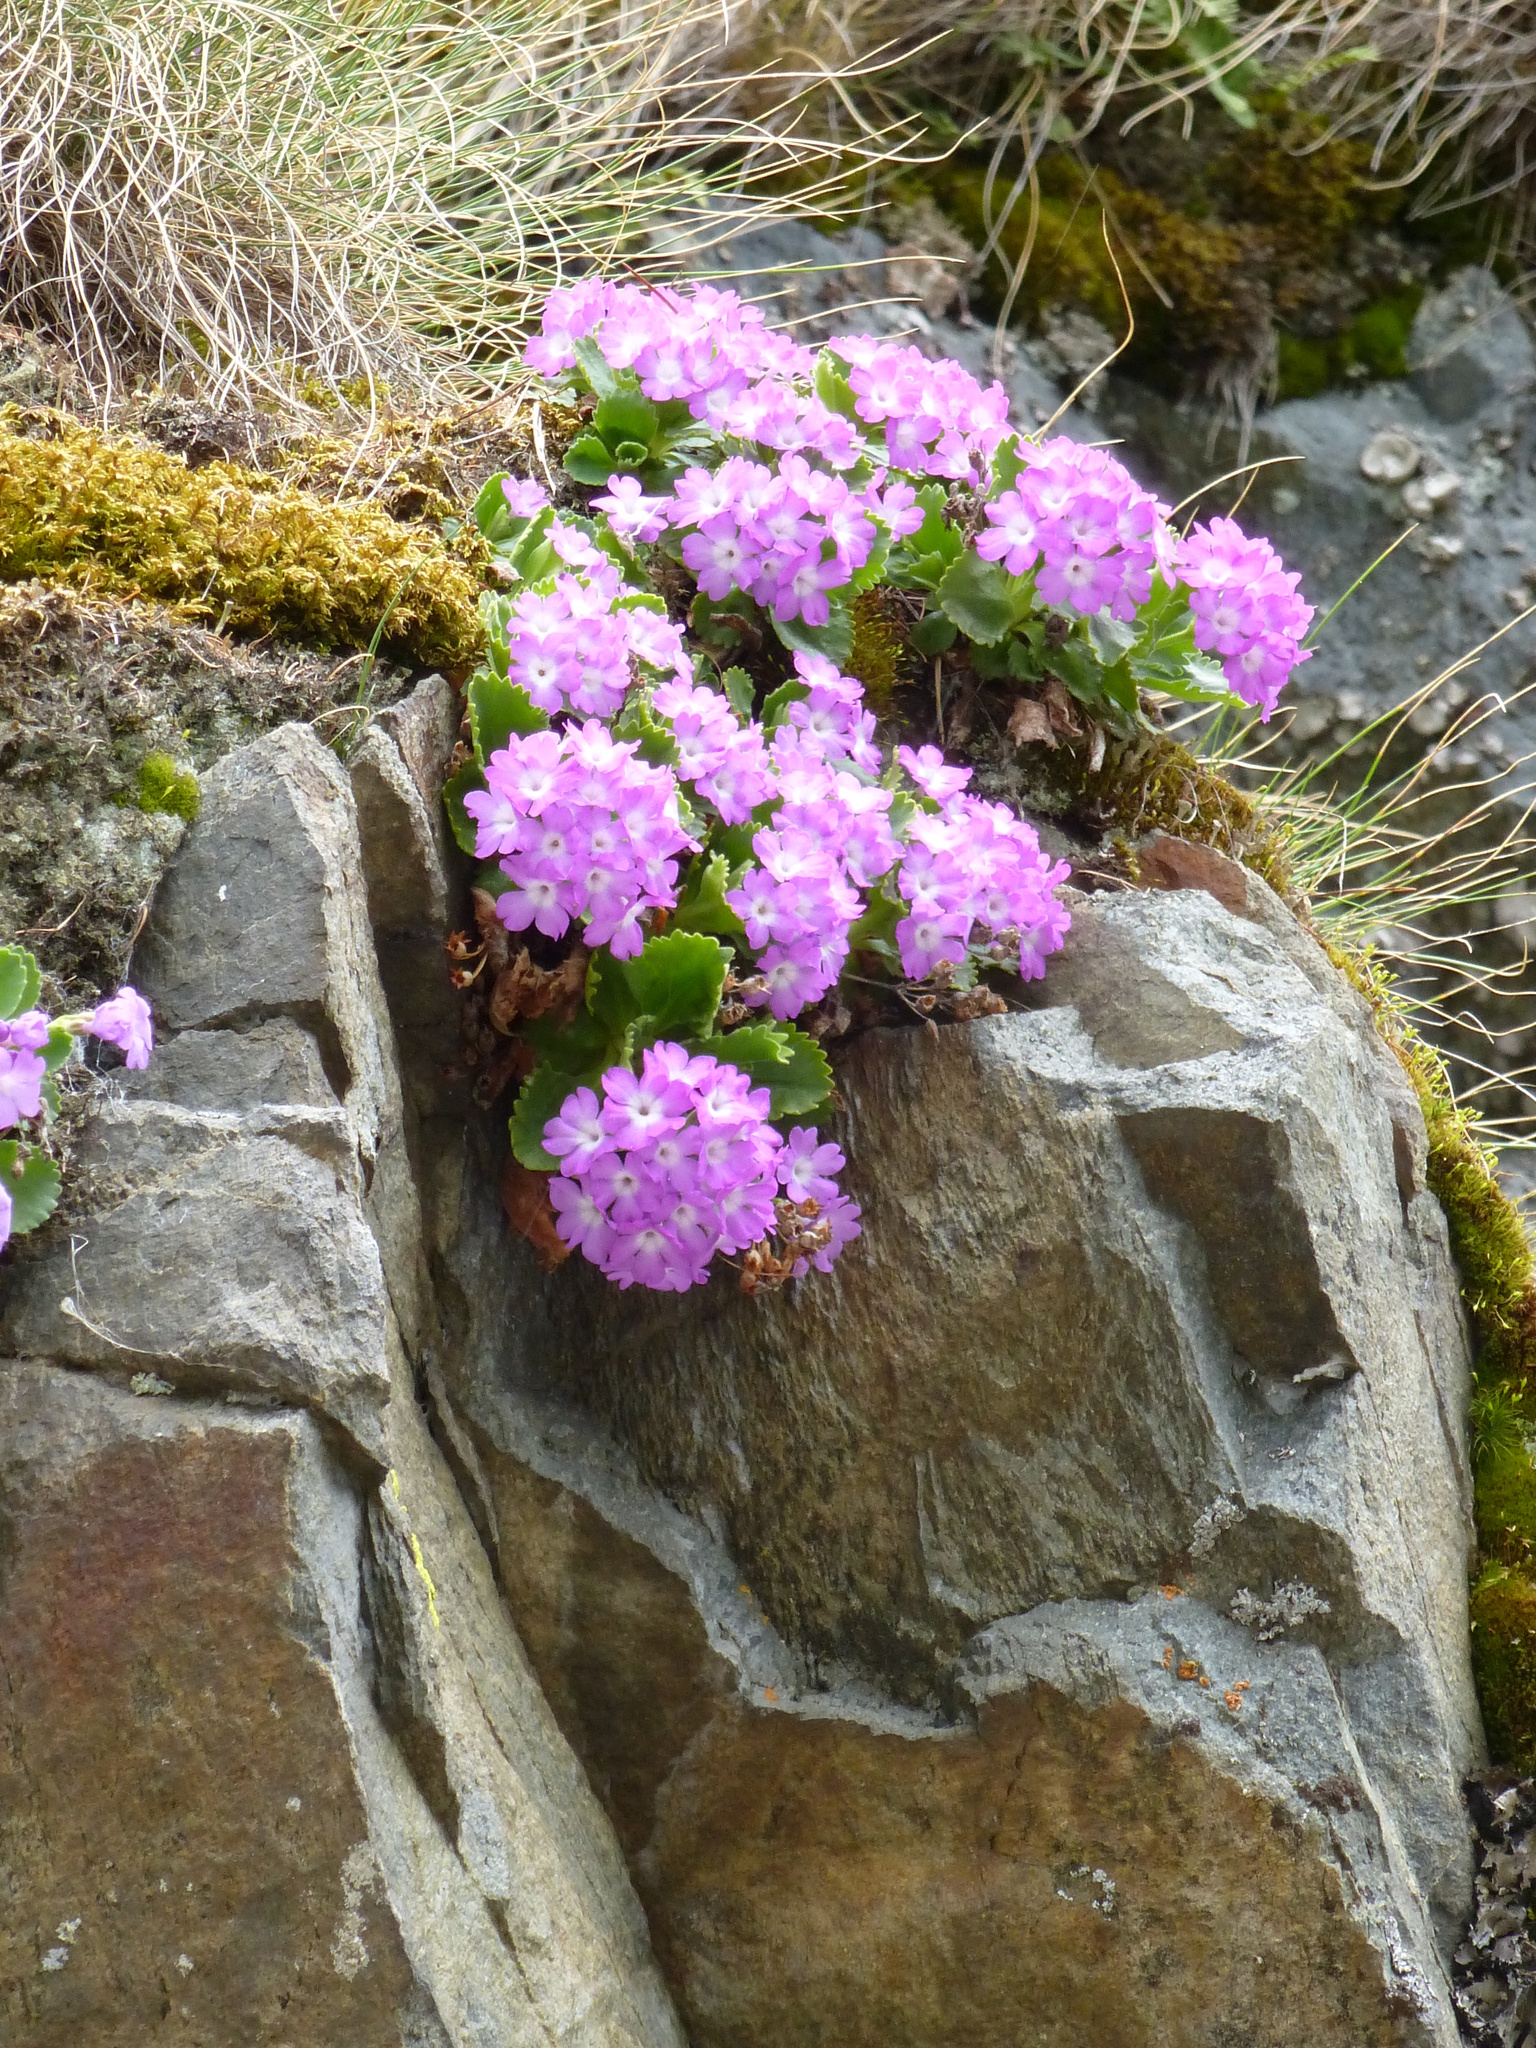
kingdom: Plantae
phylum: Tracheophyta
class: Magnoliopsida
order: Ericales
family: Primulaceae
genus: Primula
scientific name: Primula hirsuta
